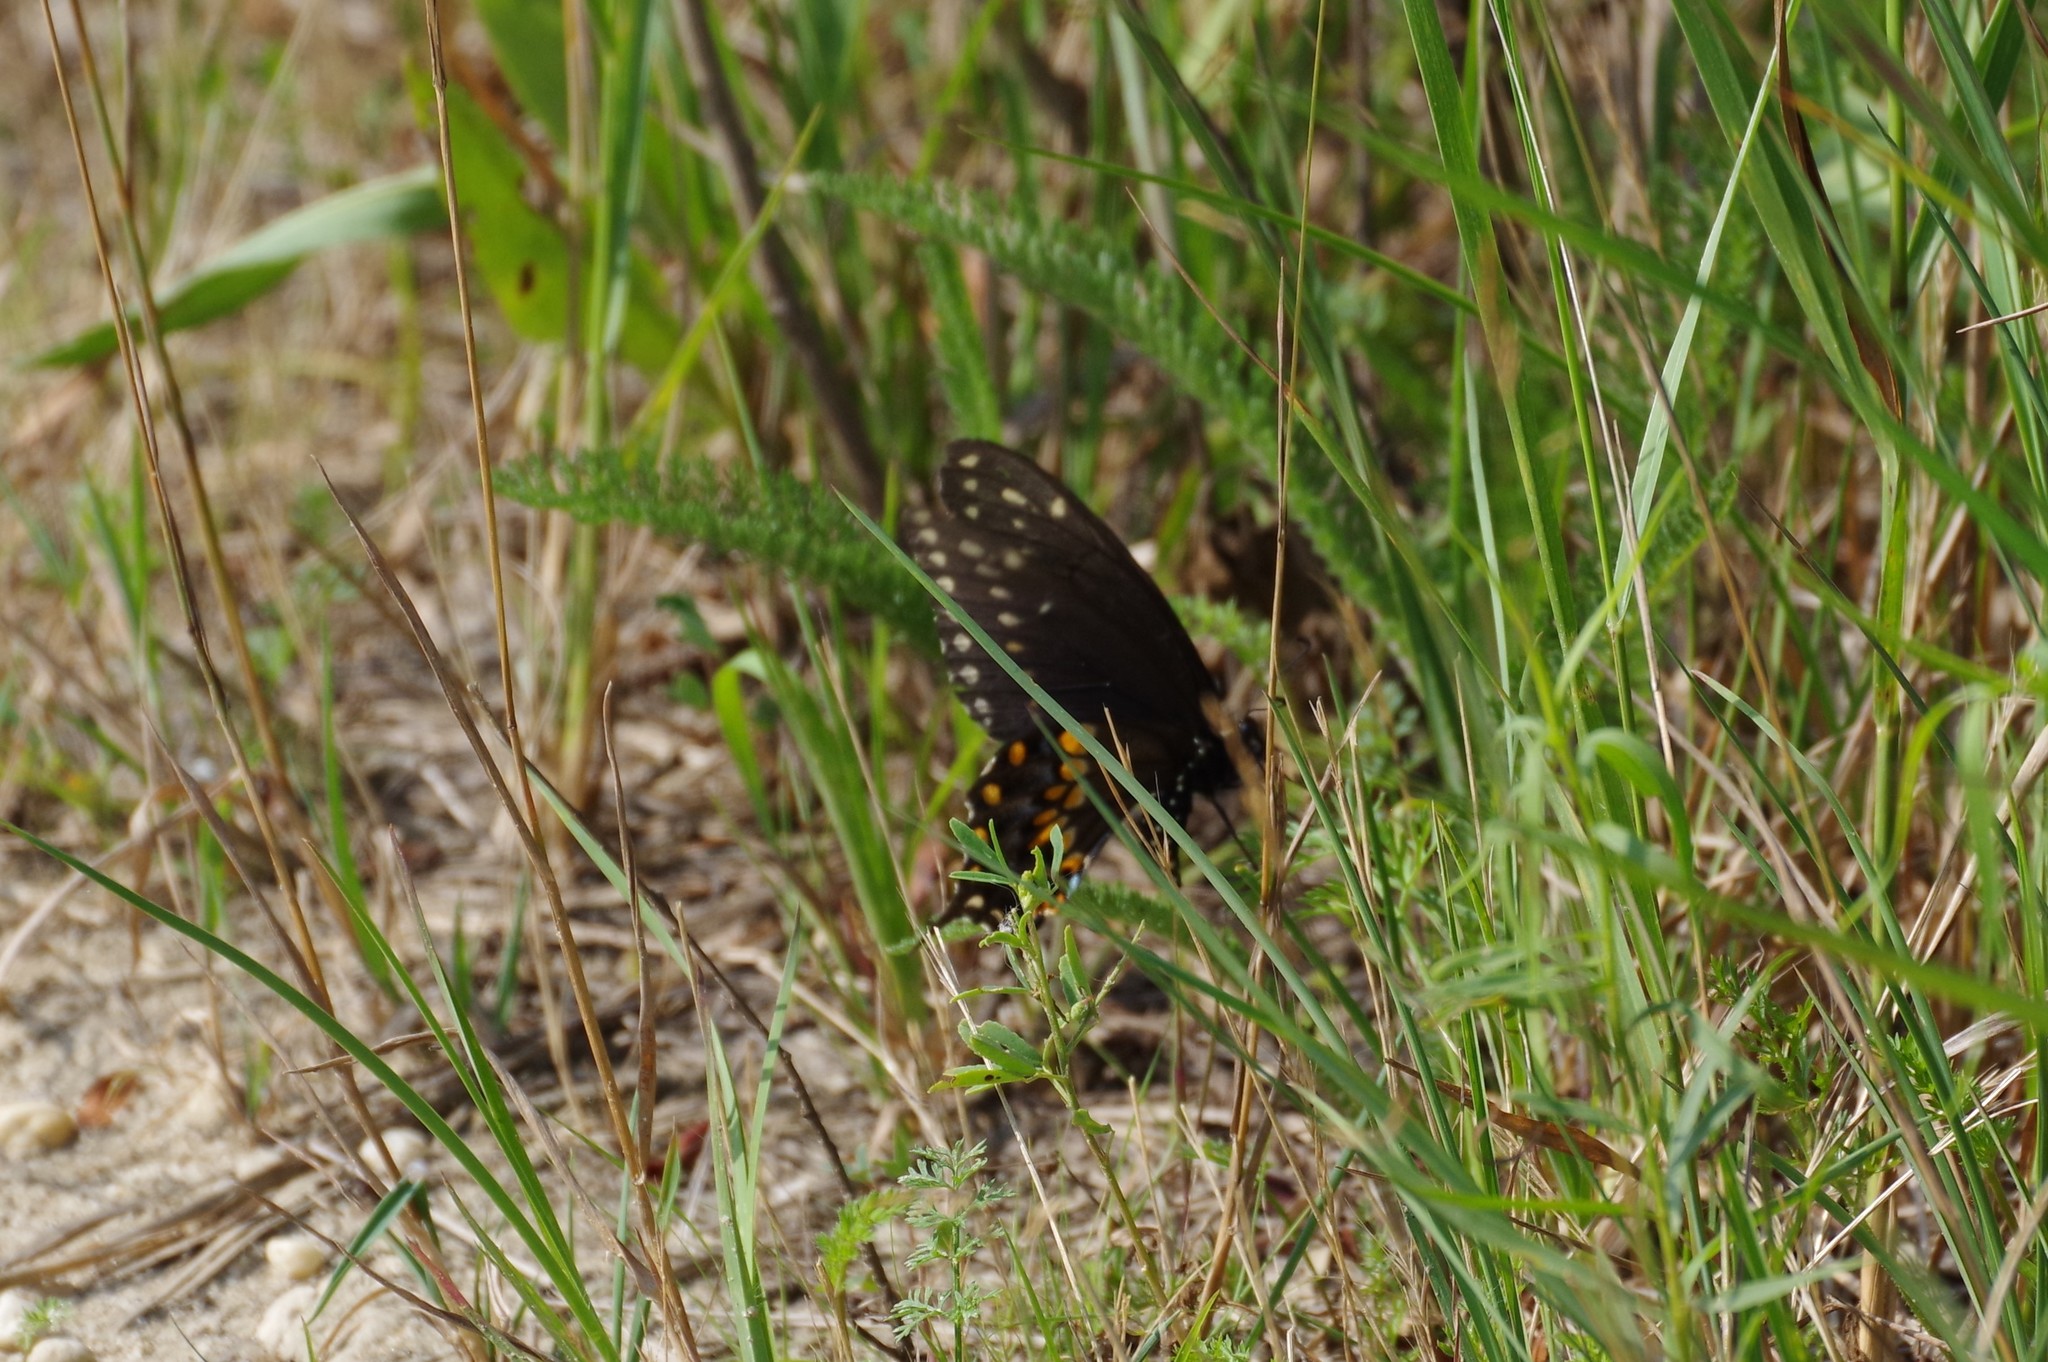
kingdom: Animalia
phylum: Arthropoda
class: Insecta
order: Lepidoptera
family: Papilionidae
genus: Papilio
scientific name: Papilio polyxenes
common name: Black swallowtail
